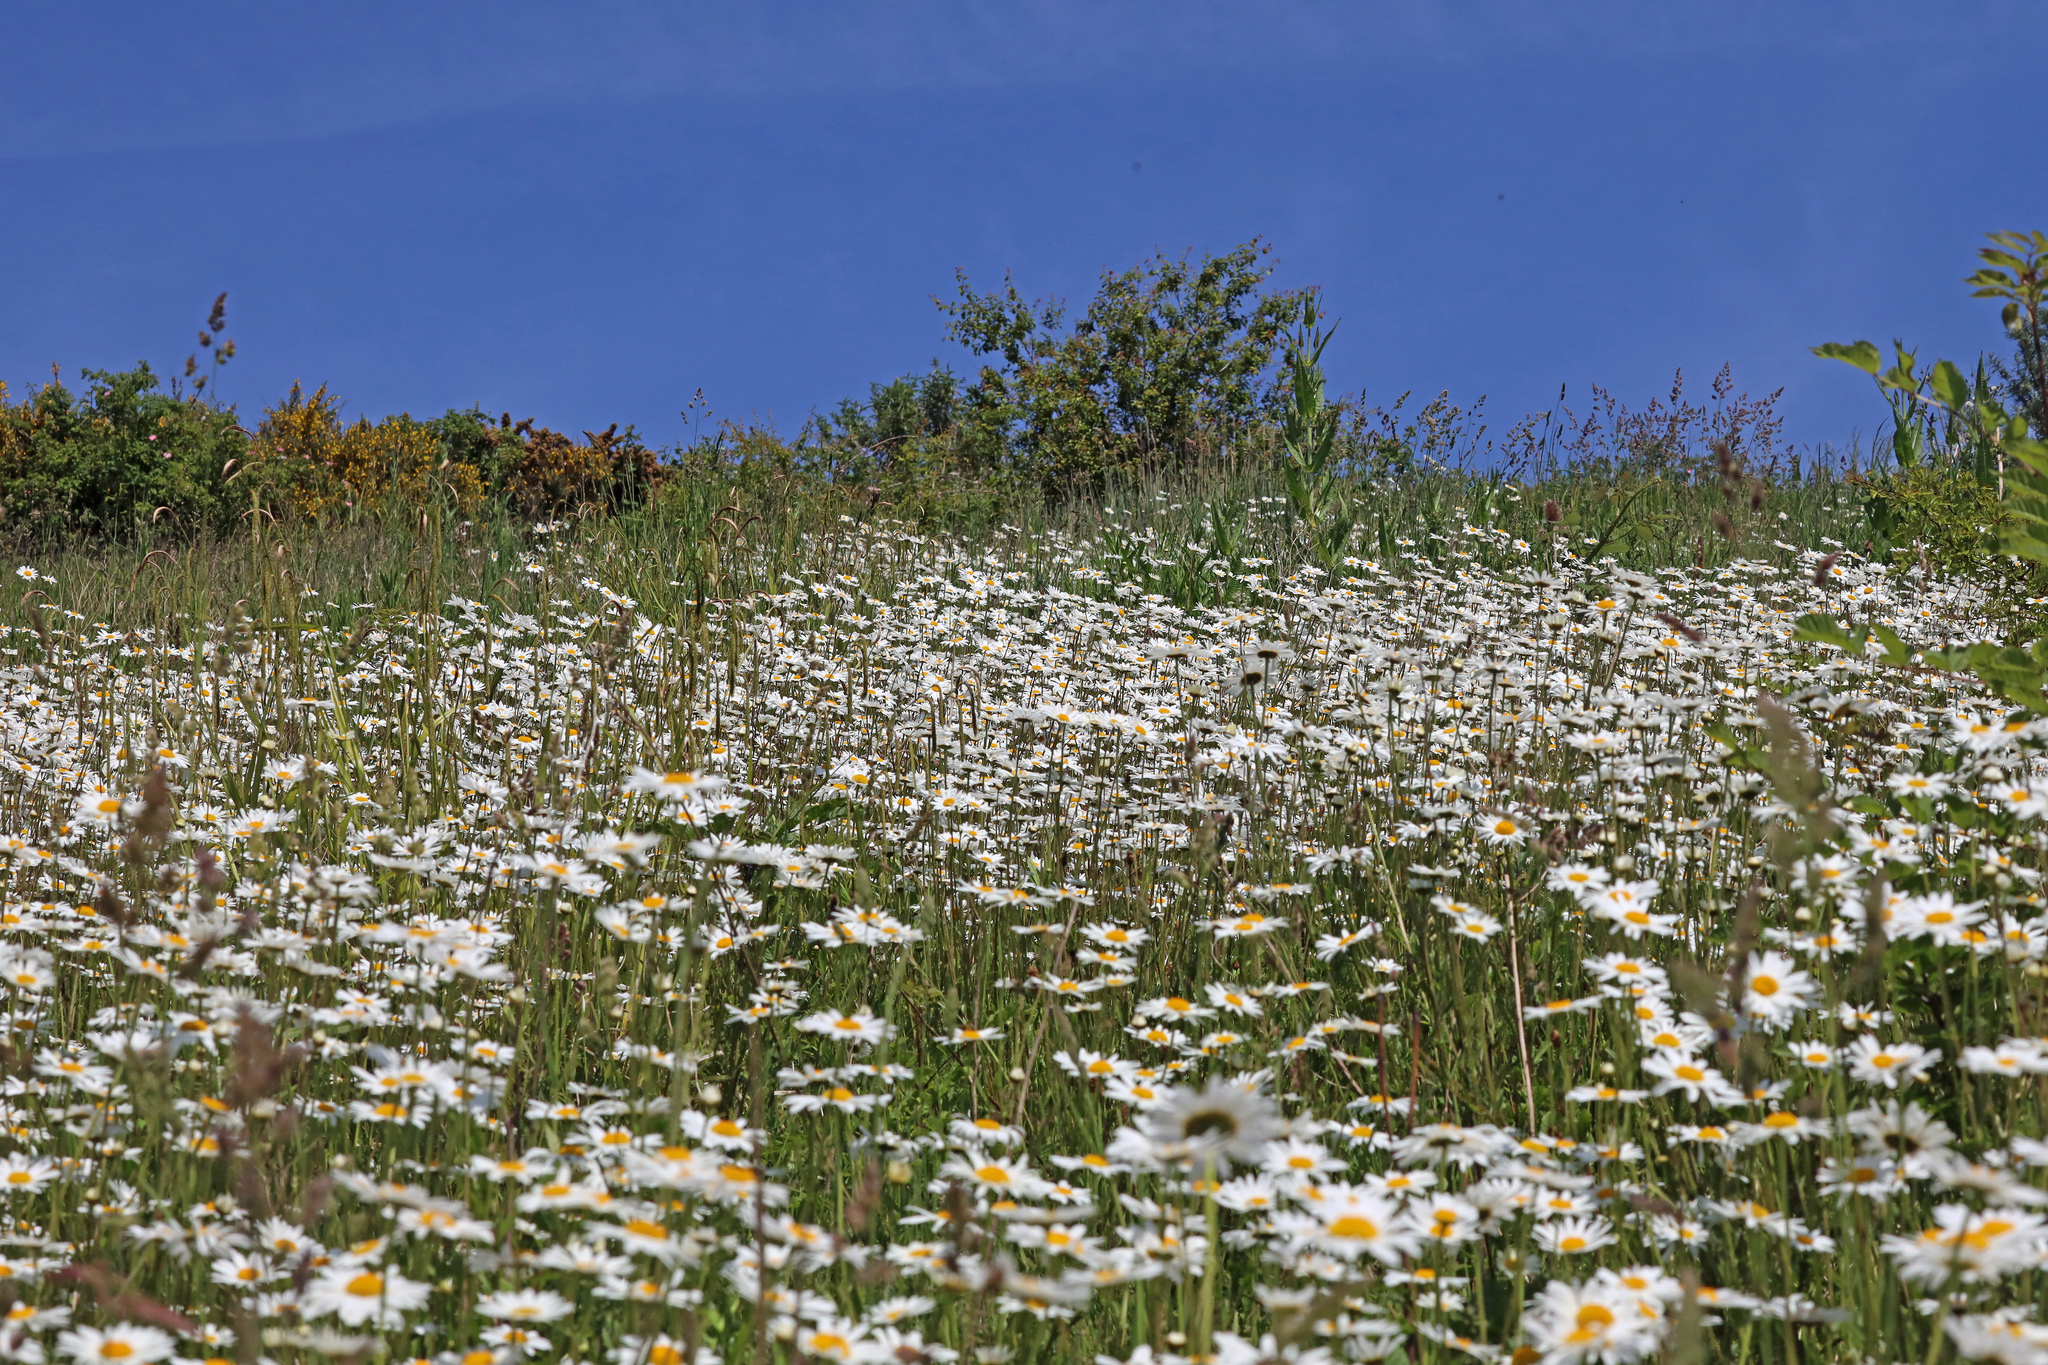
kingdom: Plantae
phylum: Tracheophyta
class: Magnoliopsida
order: Asterales
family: Asteraceae
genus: Leucanthemum
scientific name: Leucanthemum maximum
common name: Max chrysanthemum
